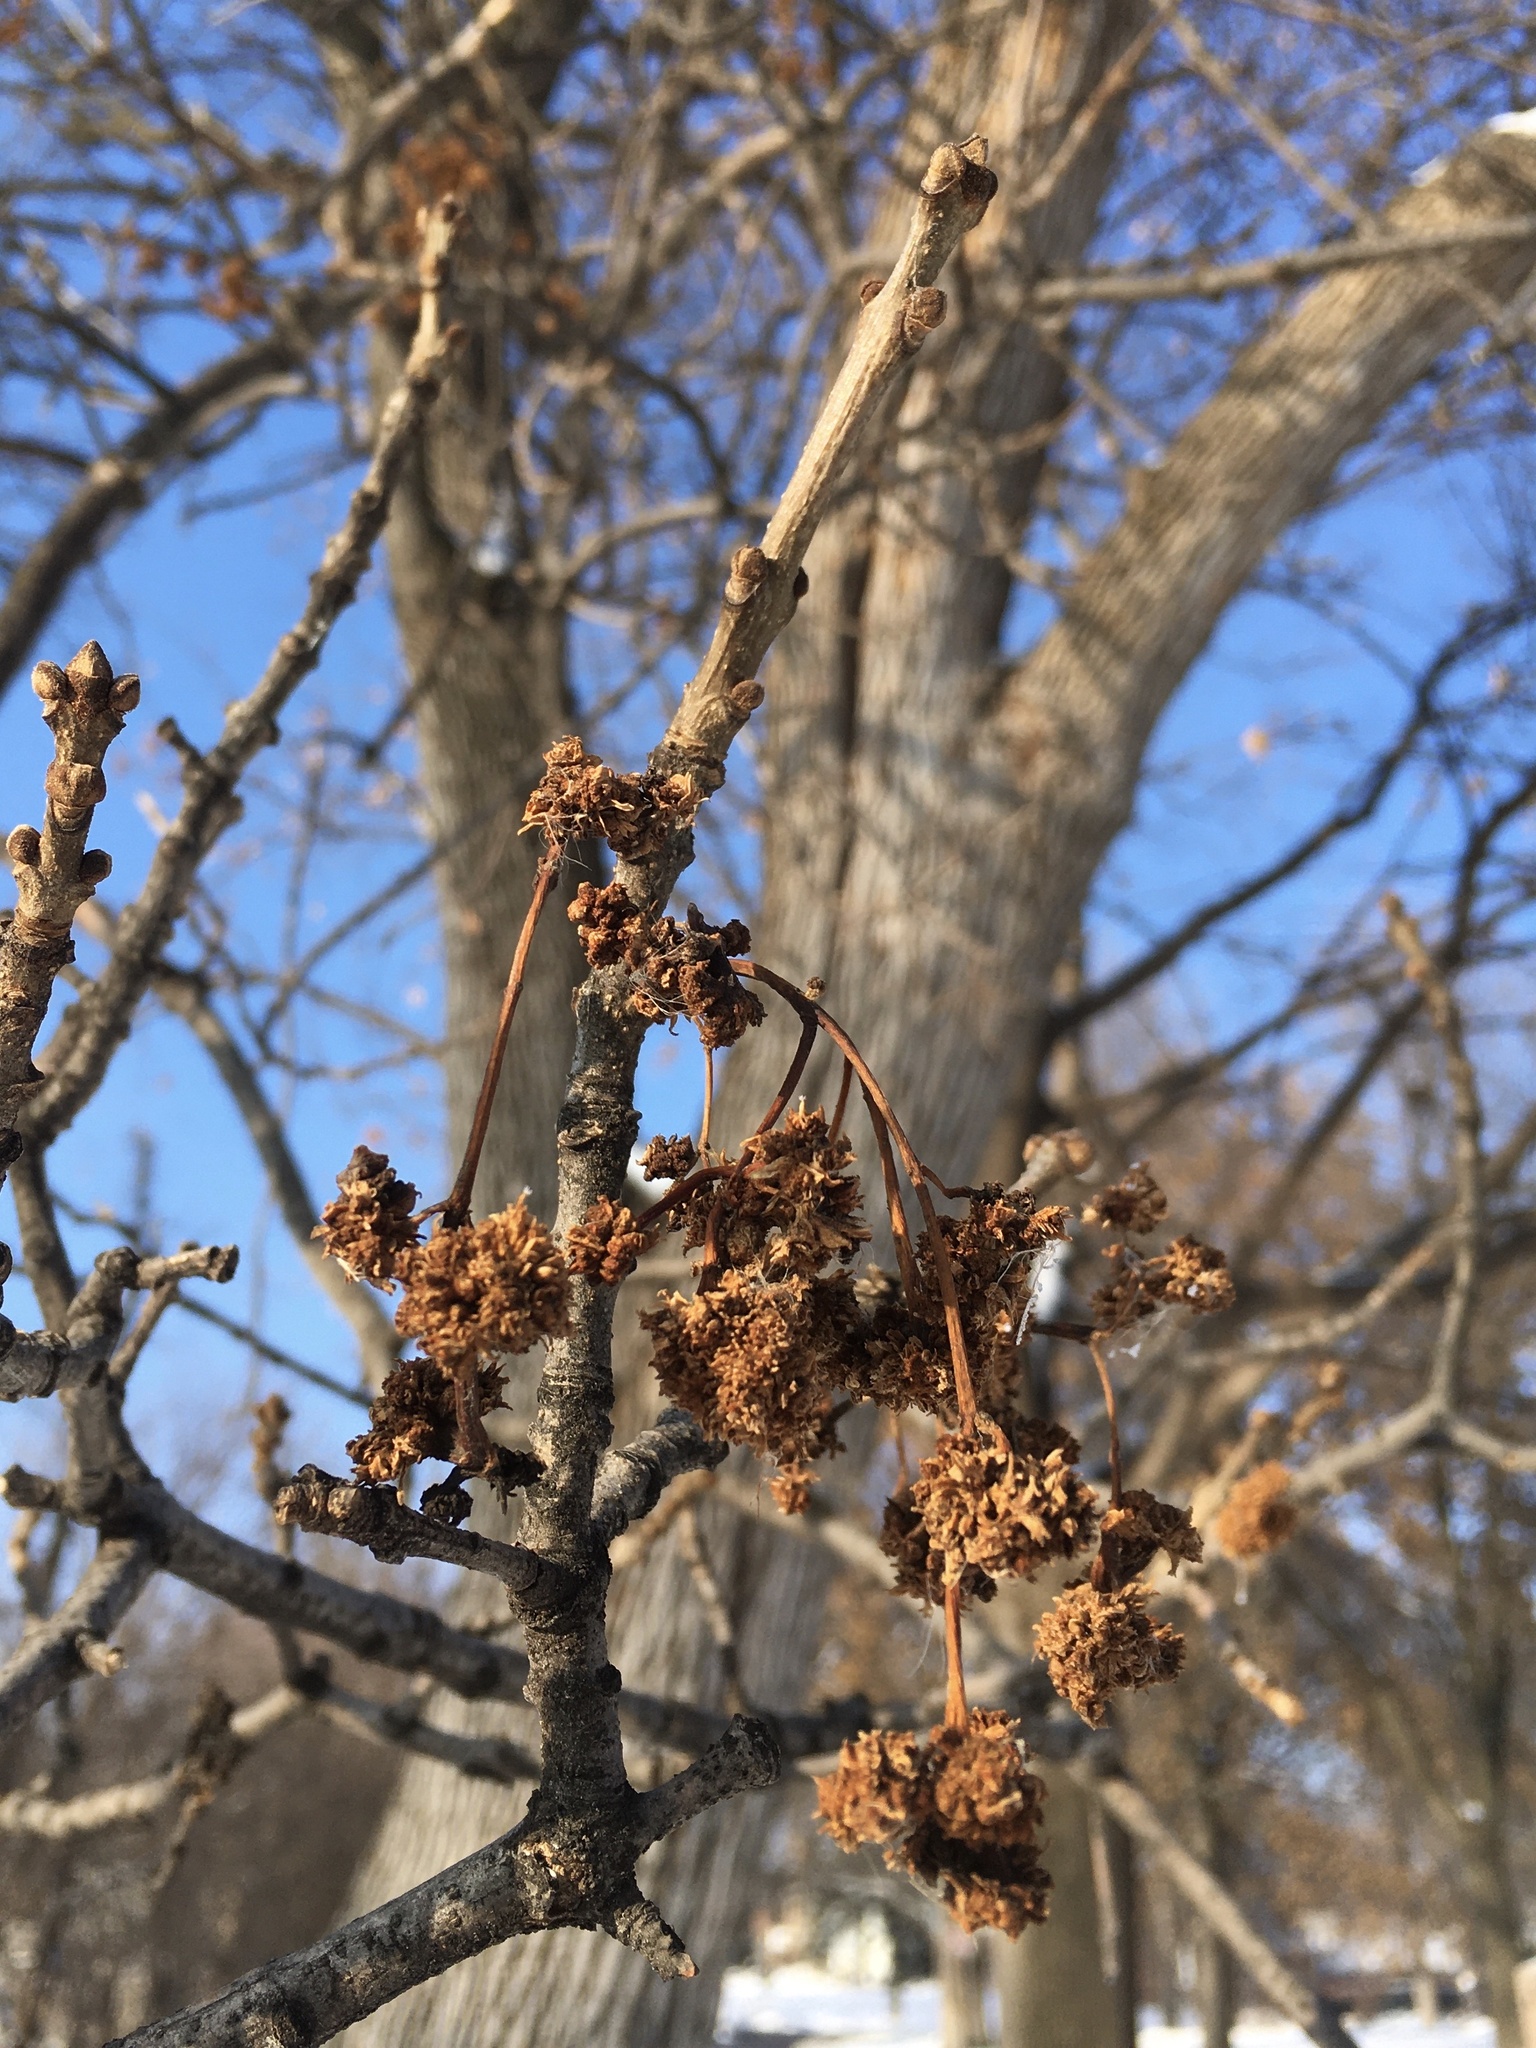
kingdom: Animalia
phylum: Arthropoda
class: Arachnida
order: Trombidiformes
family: Eriophyidae
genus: Aceria
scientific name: Aceria fraxiniflora
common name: Ash flower gall mite
